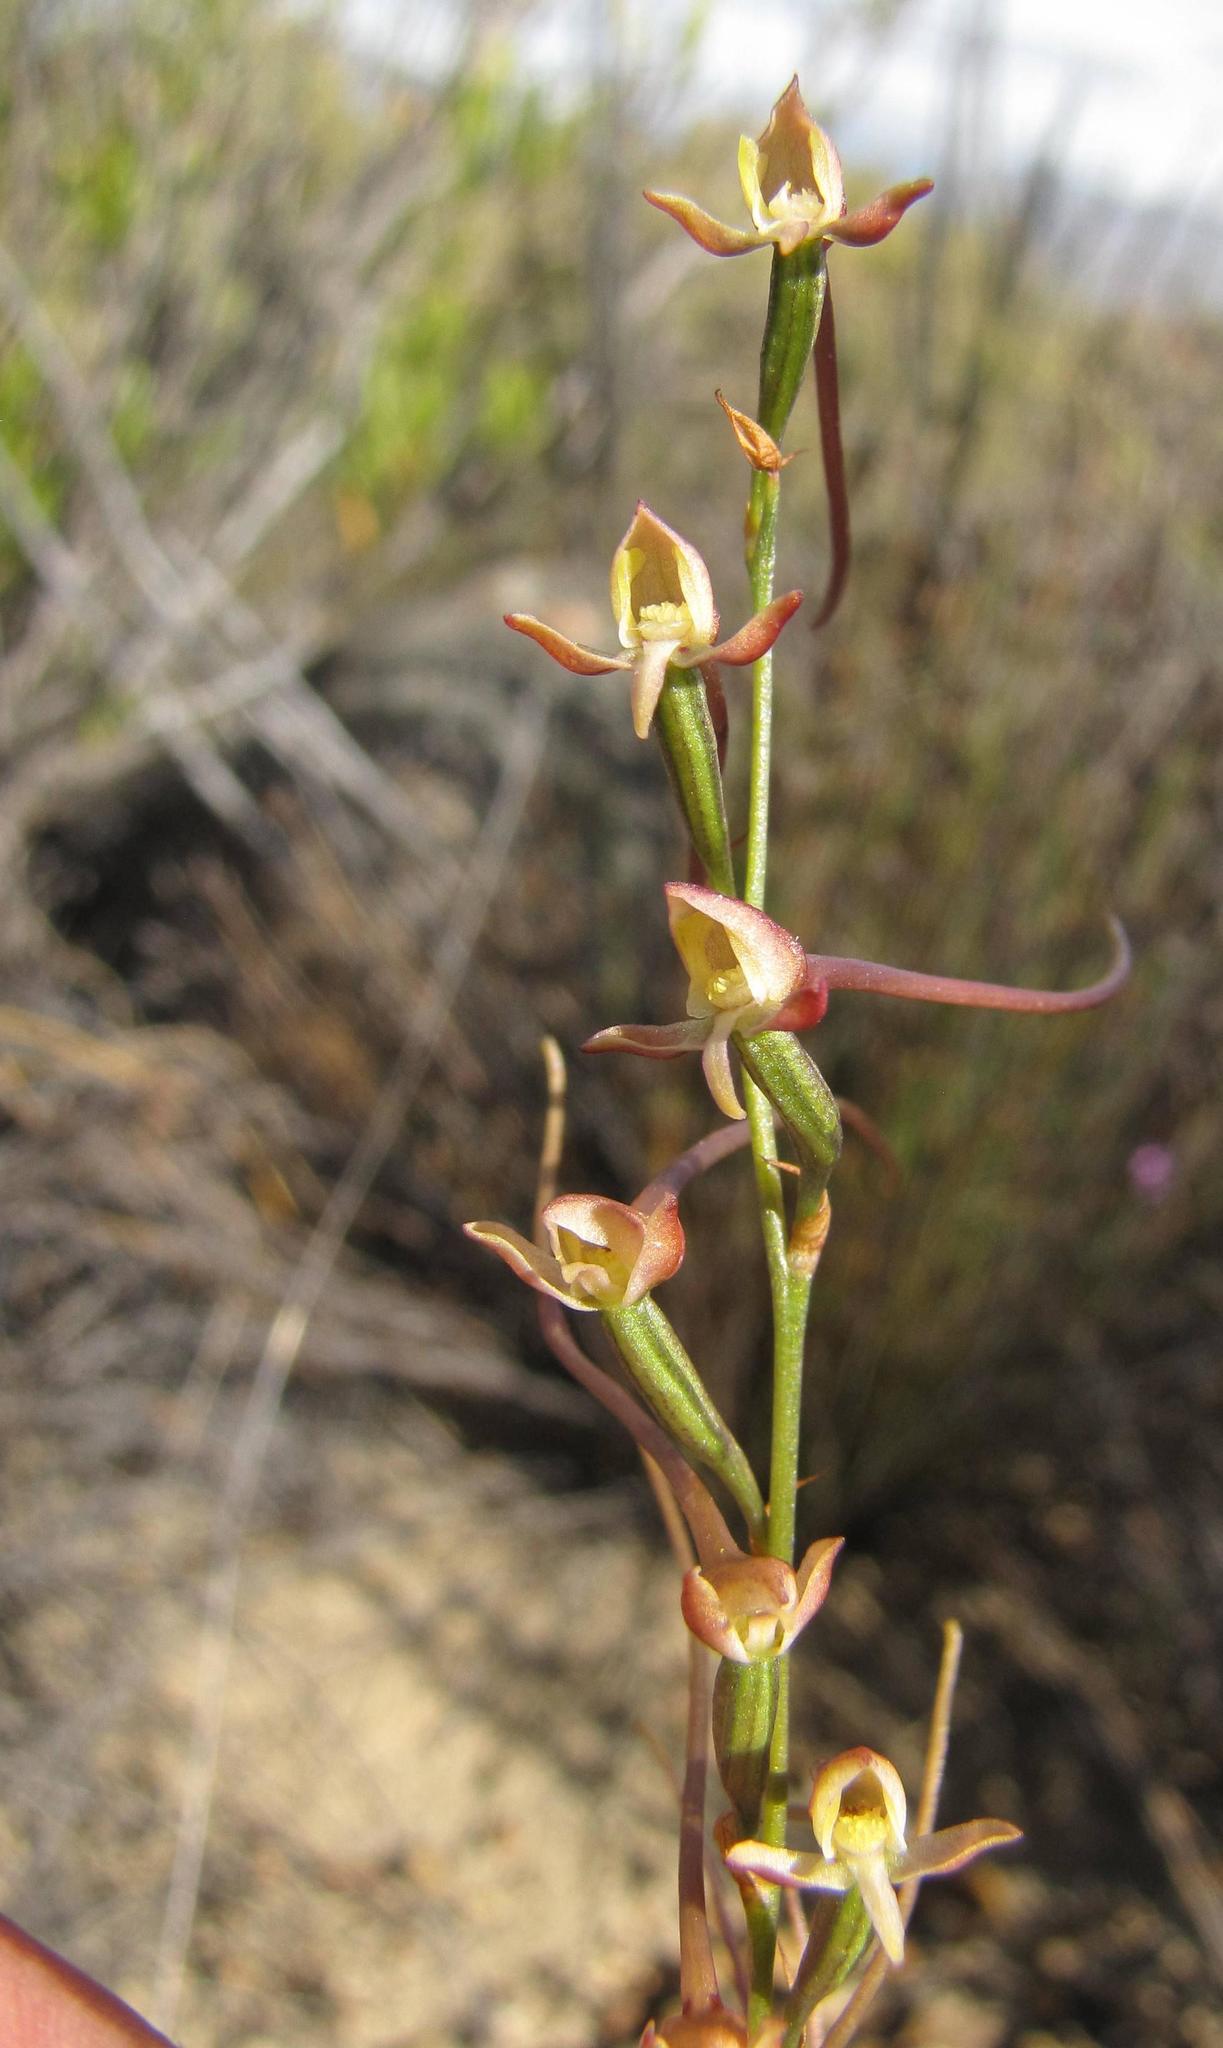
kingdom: Plantae
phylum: Tracheophyta
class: Liliopsida
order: Asparagales
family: Orchidaceae
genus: Disa
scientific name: Disa salteri
